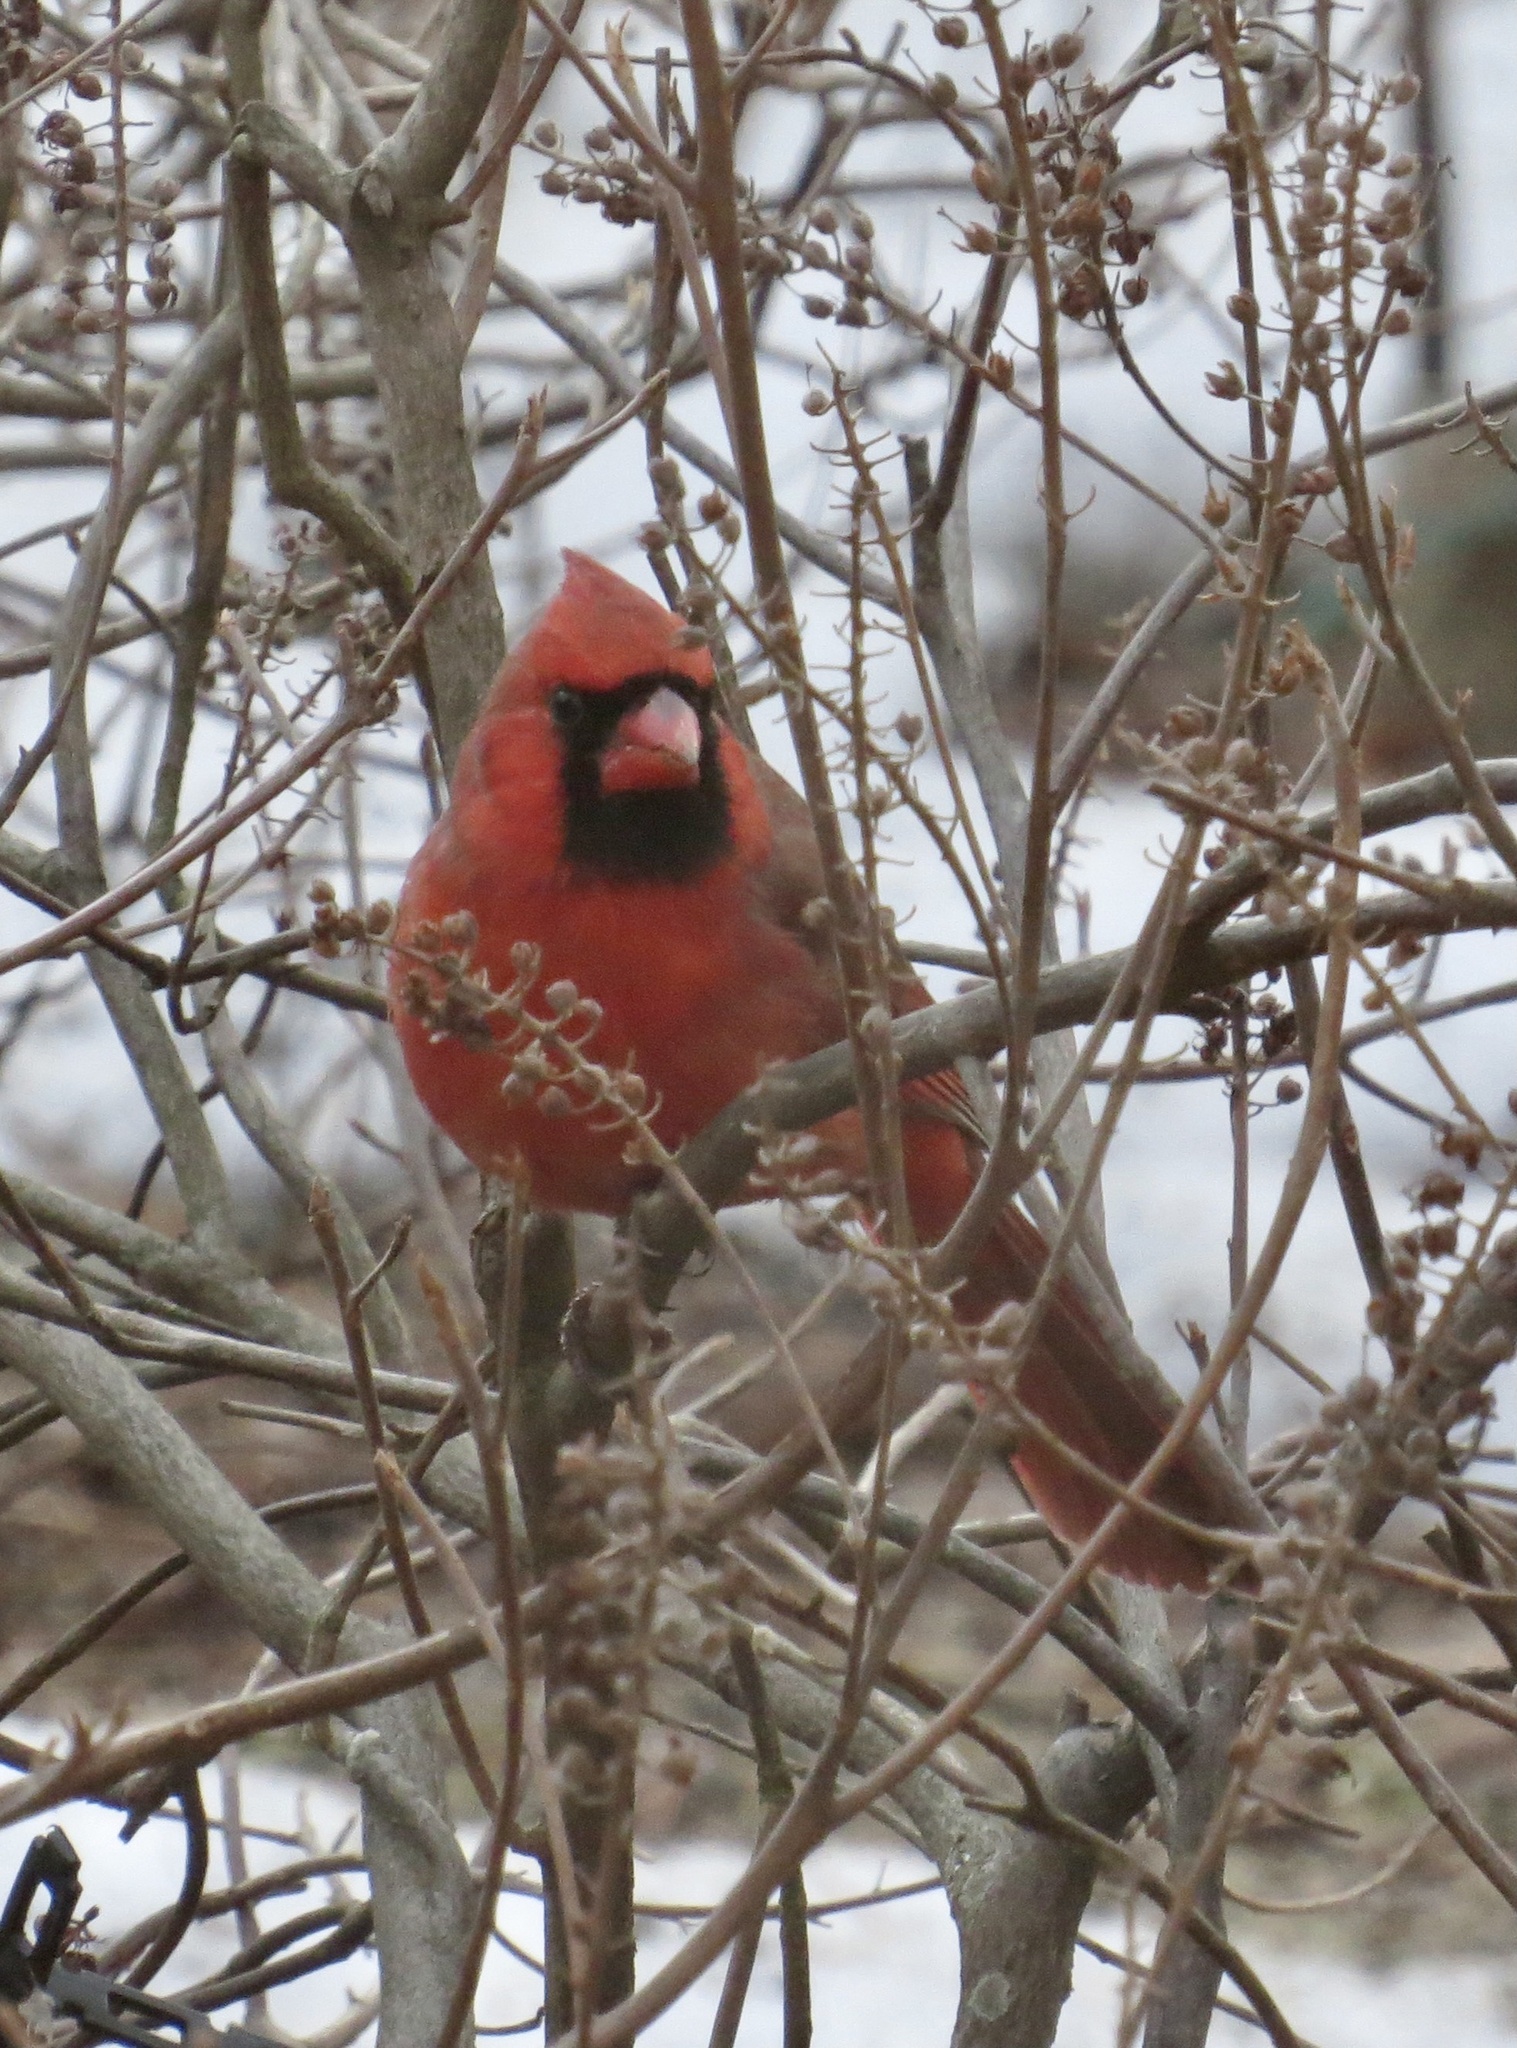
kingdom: Animalia
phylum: Chordata
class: Aves
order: Passeriformes
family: Cardinalidae
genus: Cardinalis
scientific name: Cardinalis cardinalis
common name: Northern cardinal
